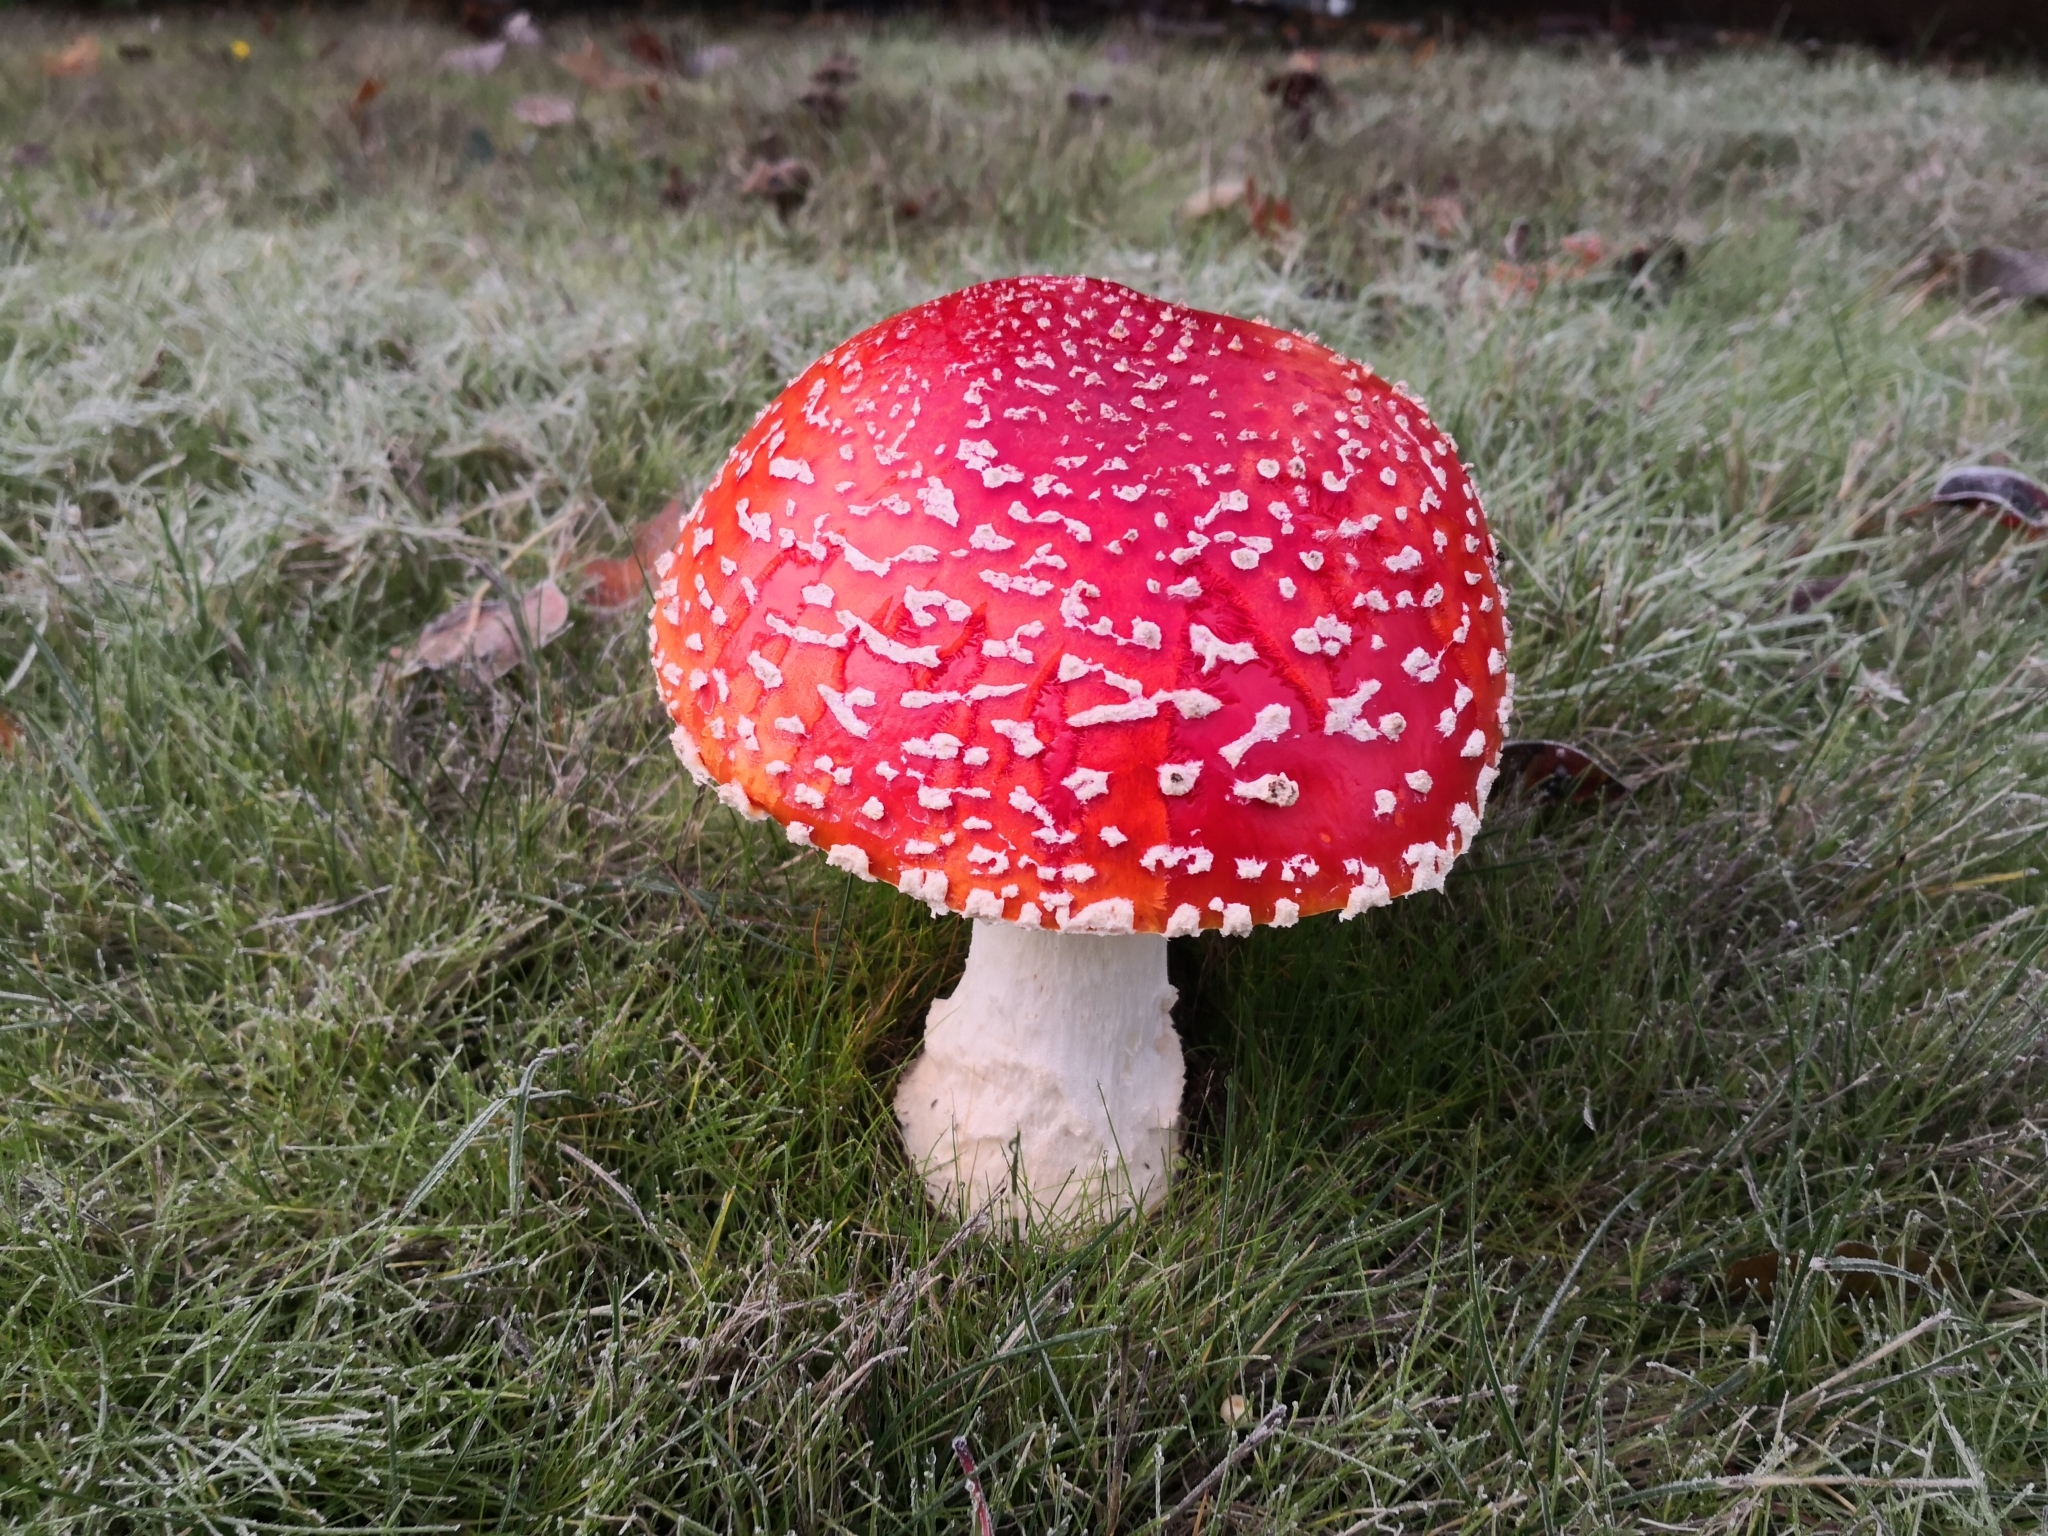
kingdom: Fungi
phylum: Basidiomycota
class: Agaricomycetes
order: Agaricales
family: Amanitaceae
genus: Amanita
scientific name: Amanita muscaria
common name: Fly agaric
